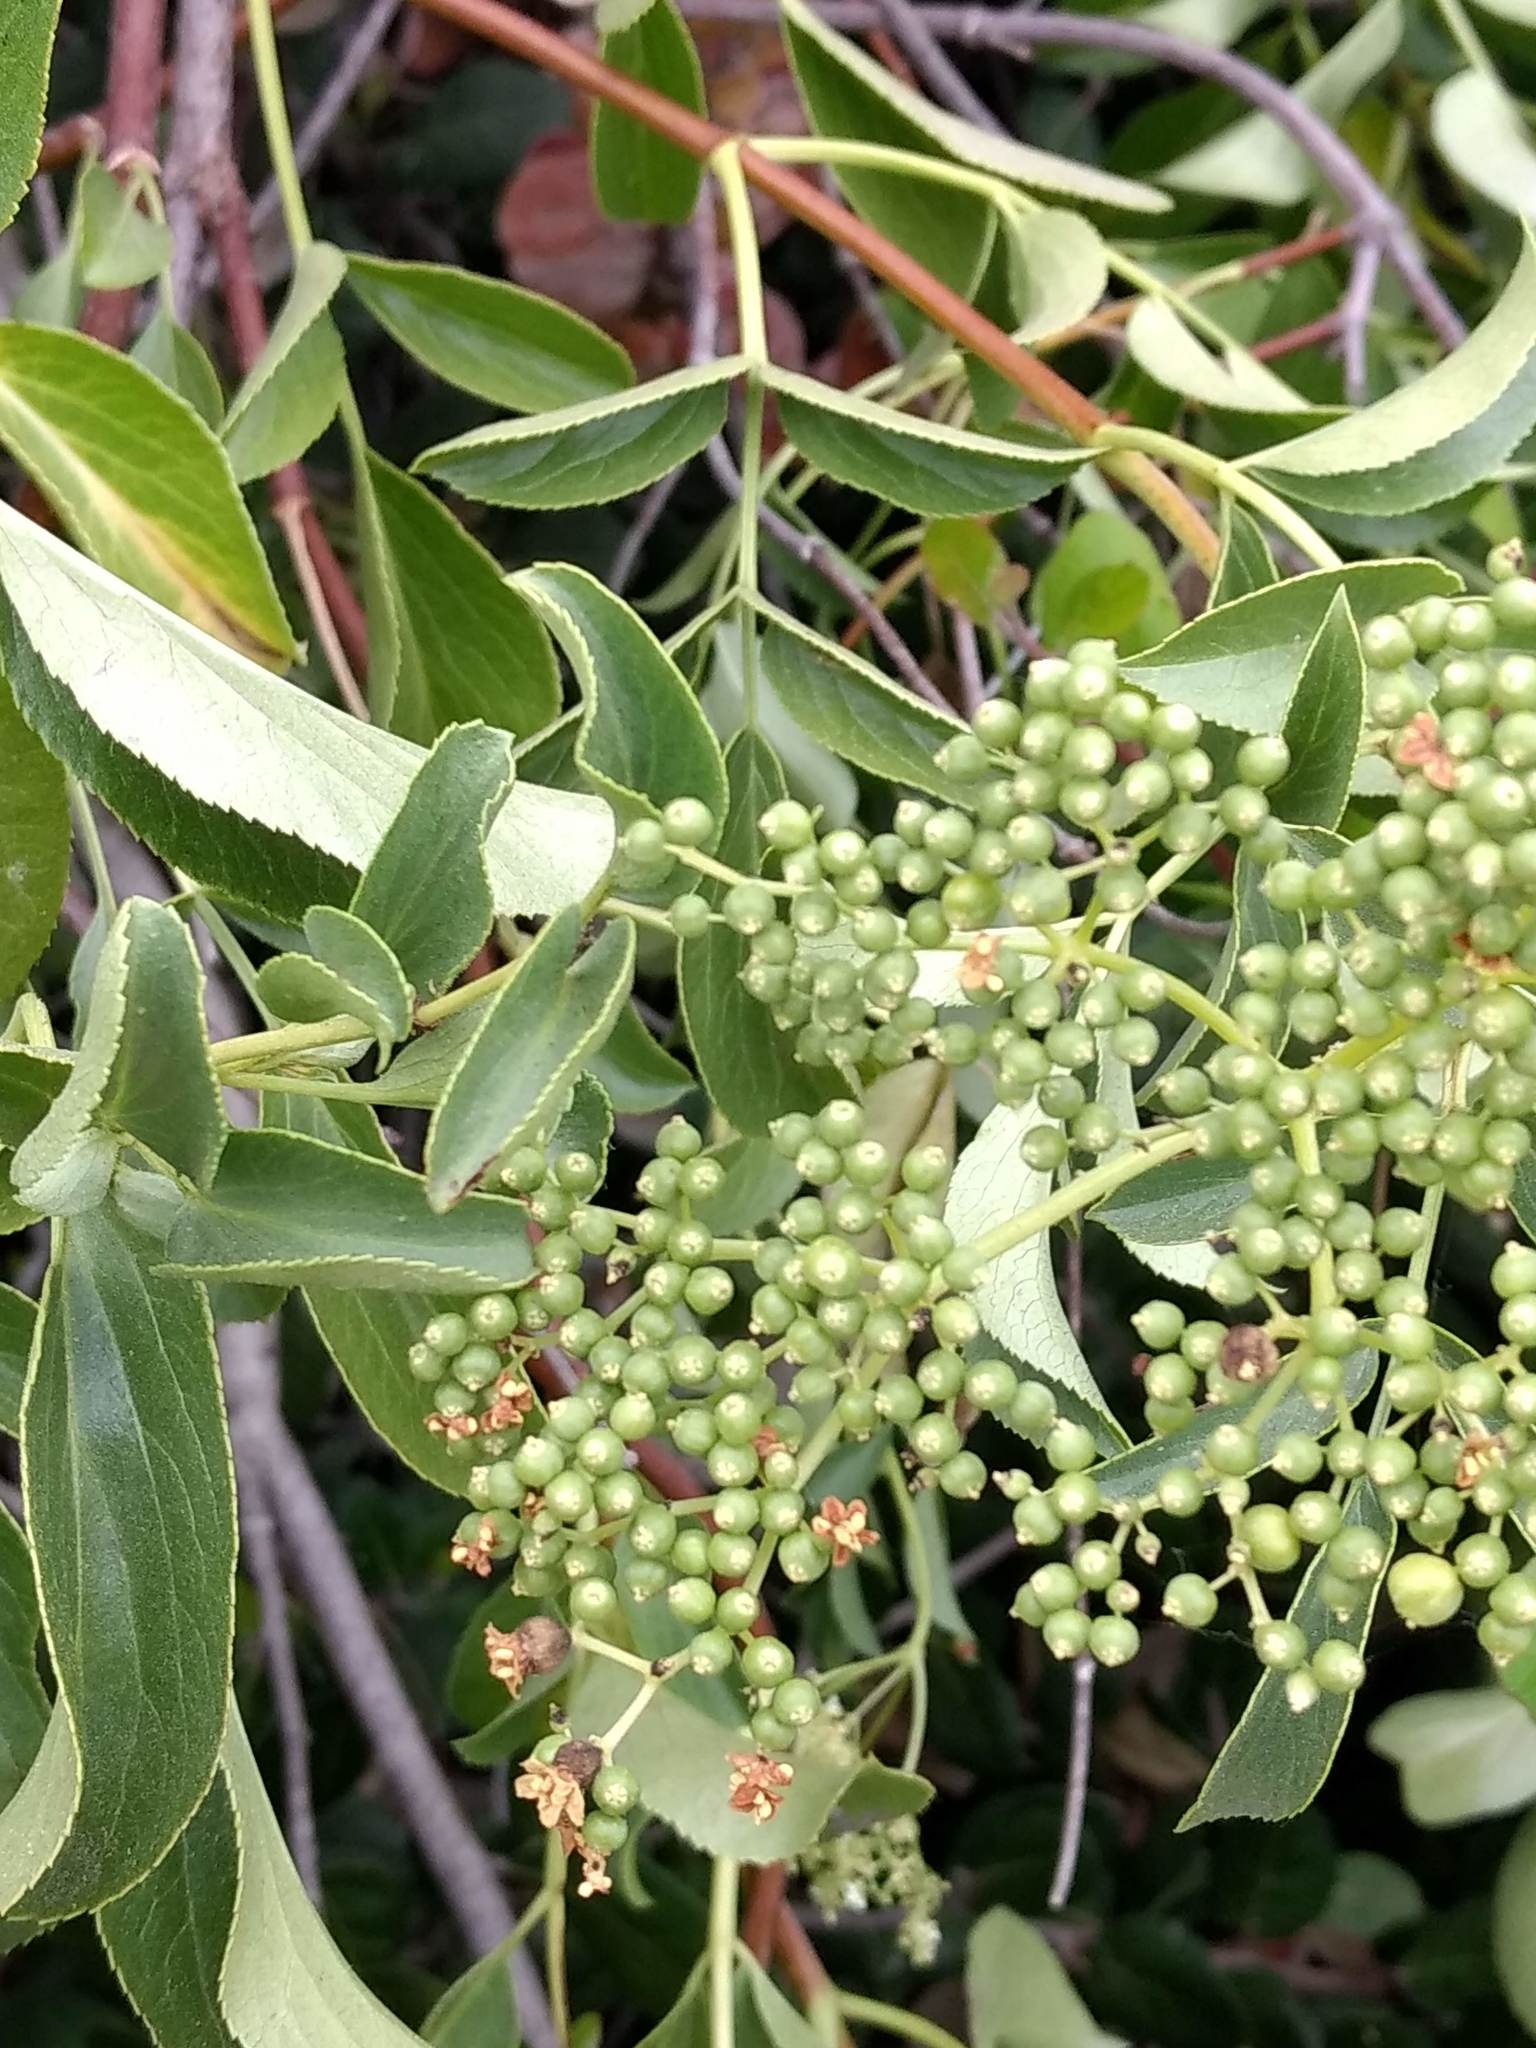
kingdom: Plantae
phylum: Tracheophyta
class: Magnoliopsida
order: Dipsacales
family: Viburnaceae
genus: Sambucus
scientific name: Sambucus cerulea
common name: Blue elder
